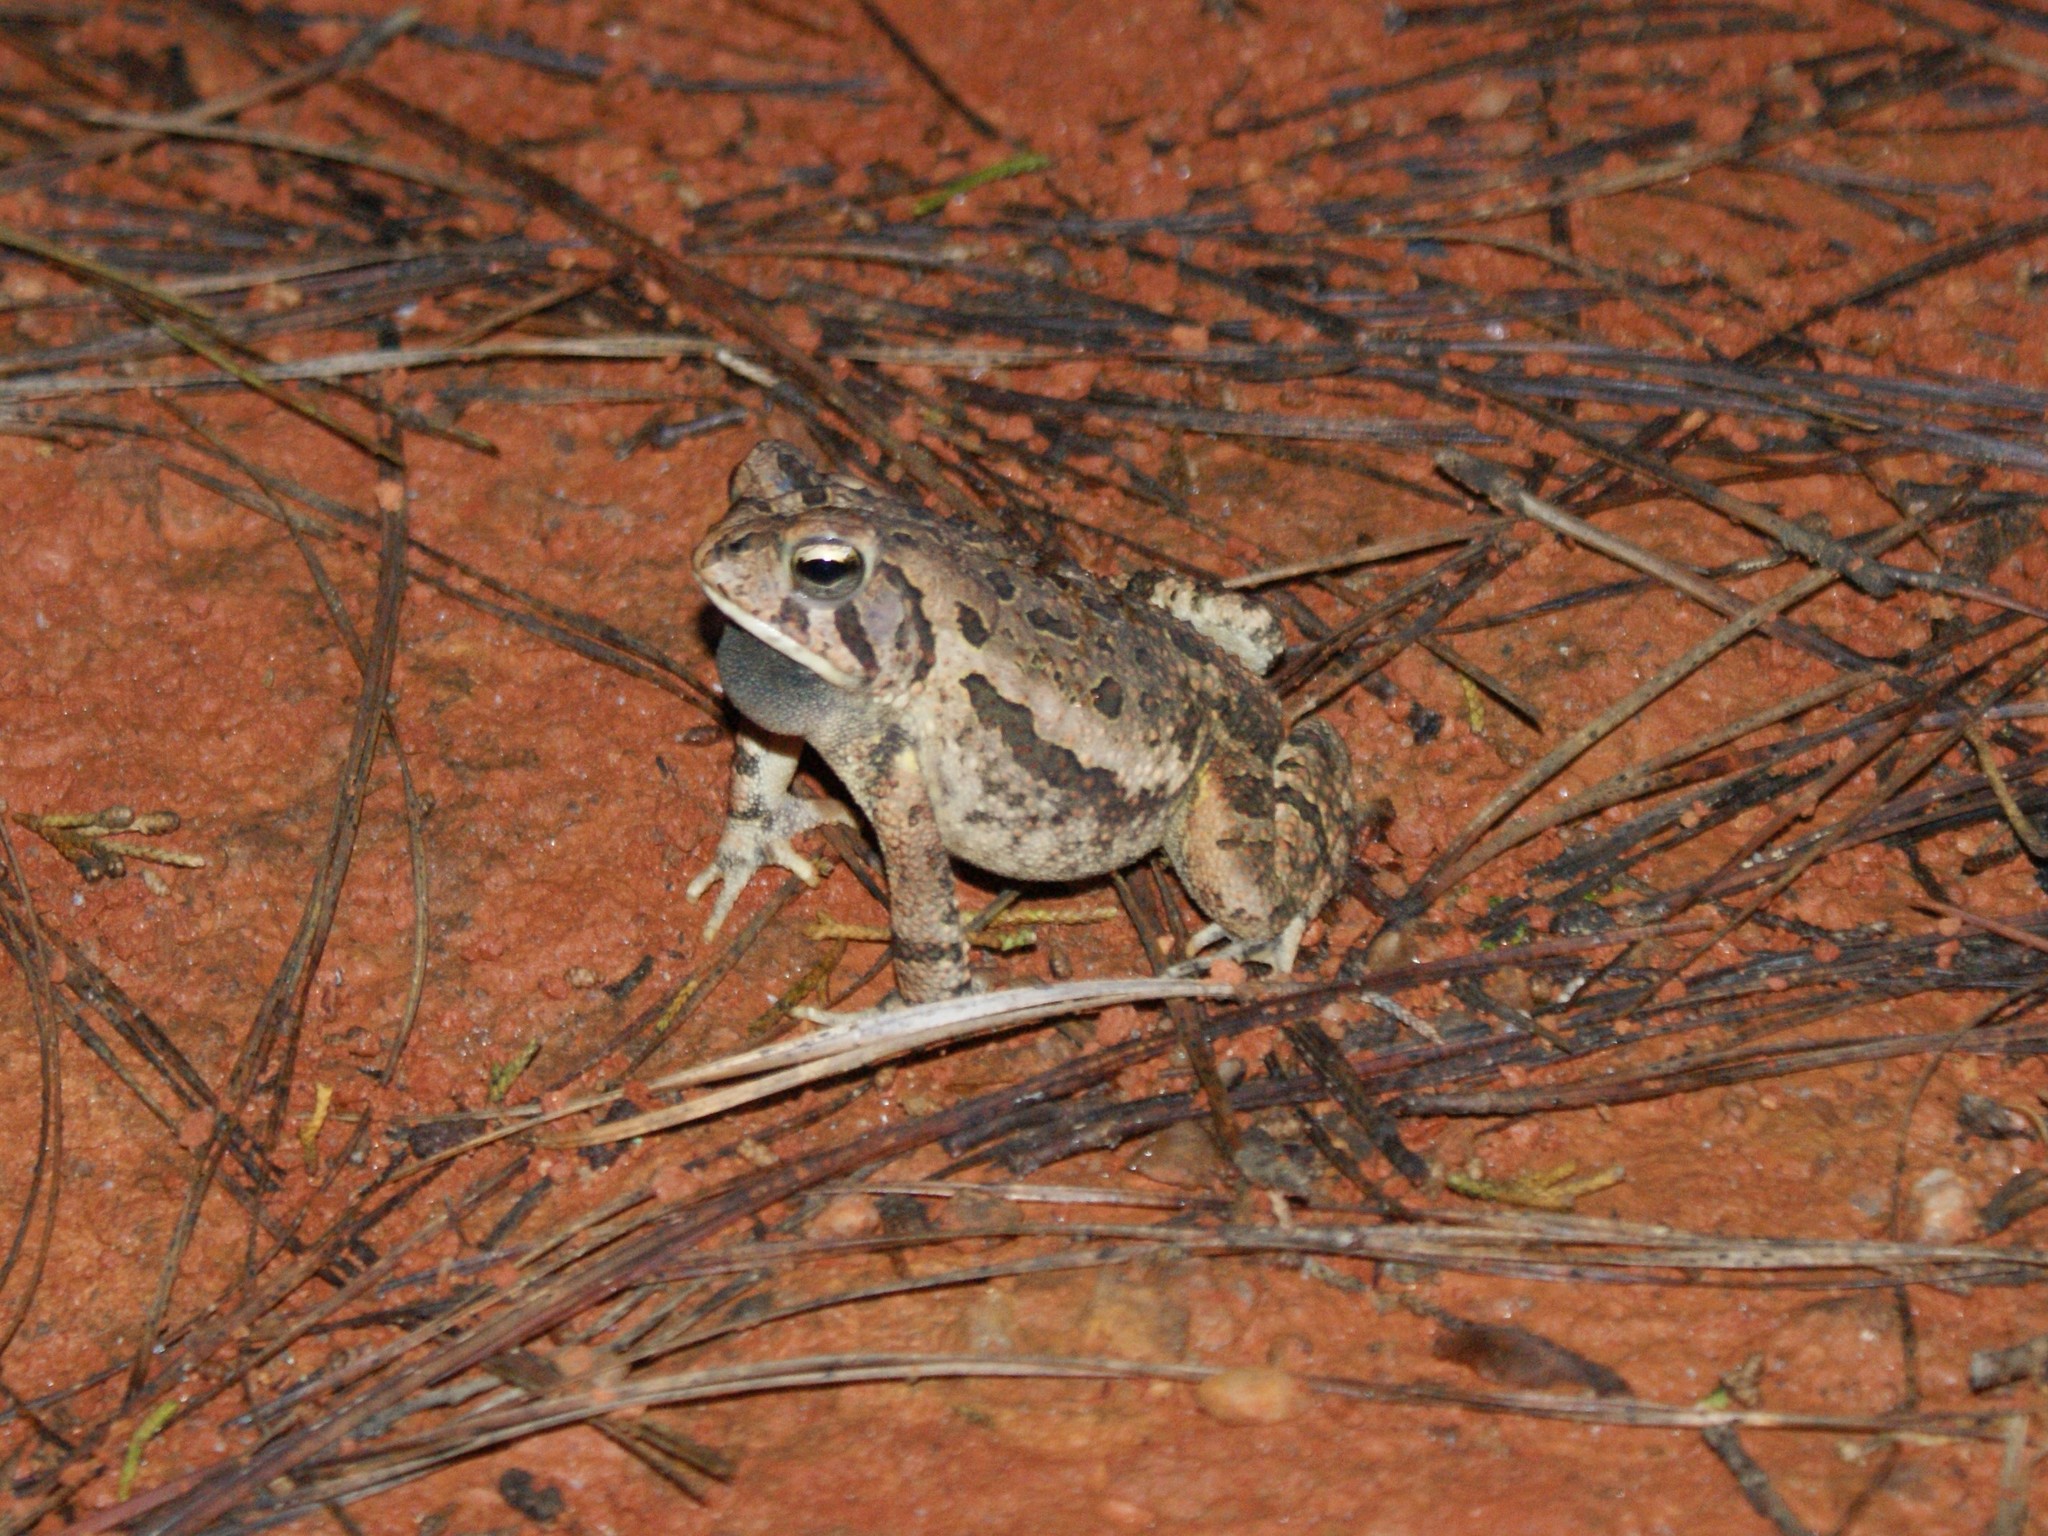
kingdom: Animalia
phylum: Chordata
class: Amphibia
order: Anura
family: Bufonidae
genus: Anaxyrus
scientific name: Anaxyrus fowleri
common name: Fowler's toad
